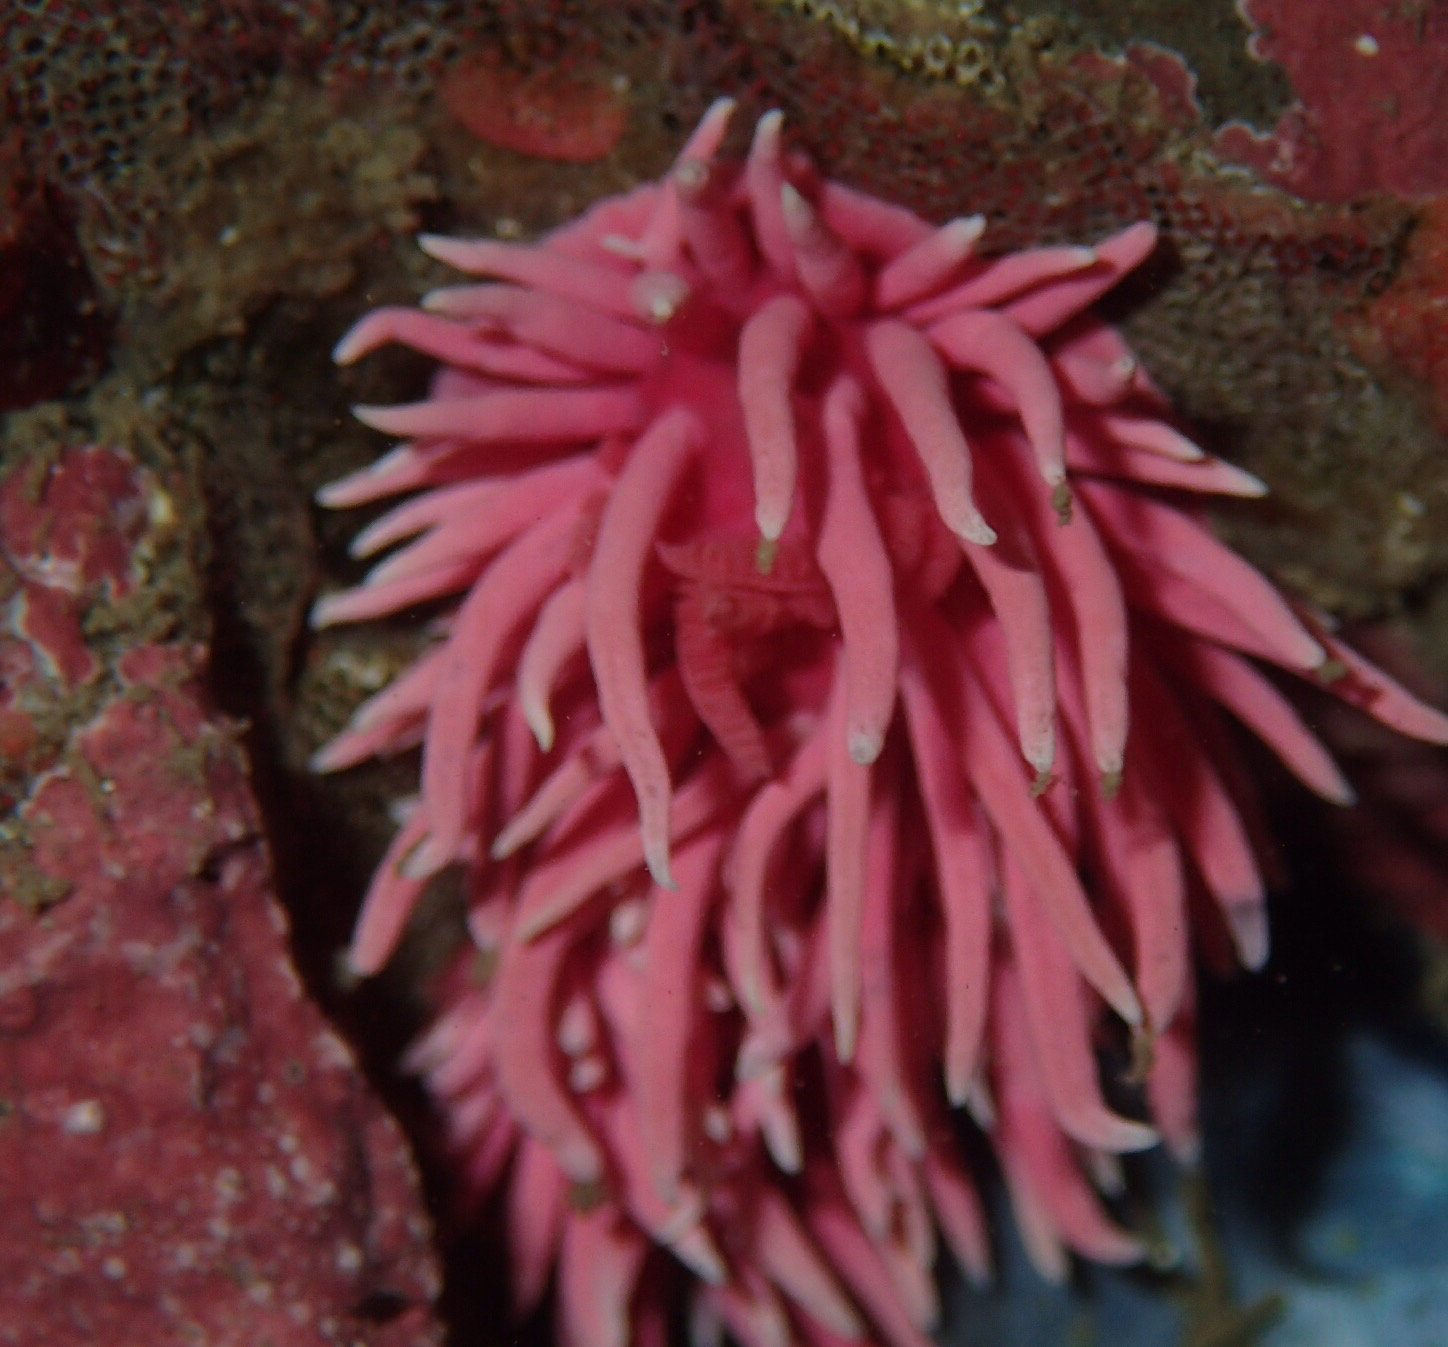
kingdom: Animalia
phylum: Mollusca
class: Gastropoda
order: Nudibranchia
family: Goniodorididae
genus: Okenia
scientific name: Okenia
